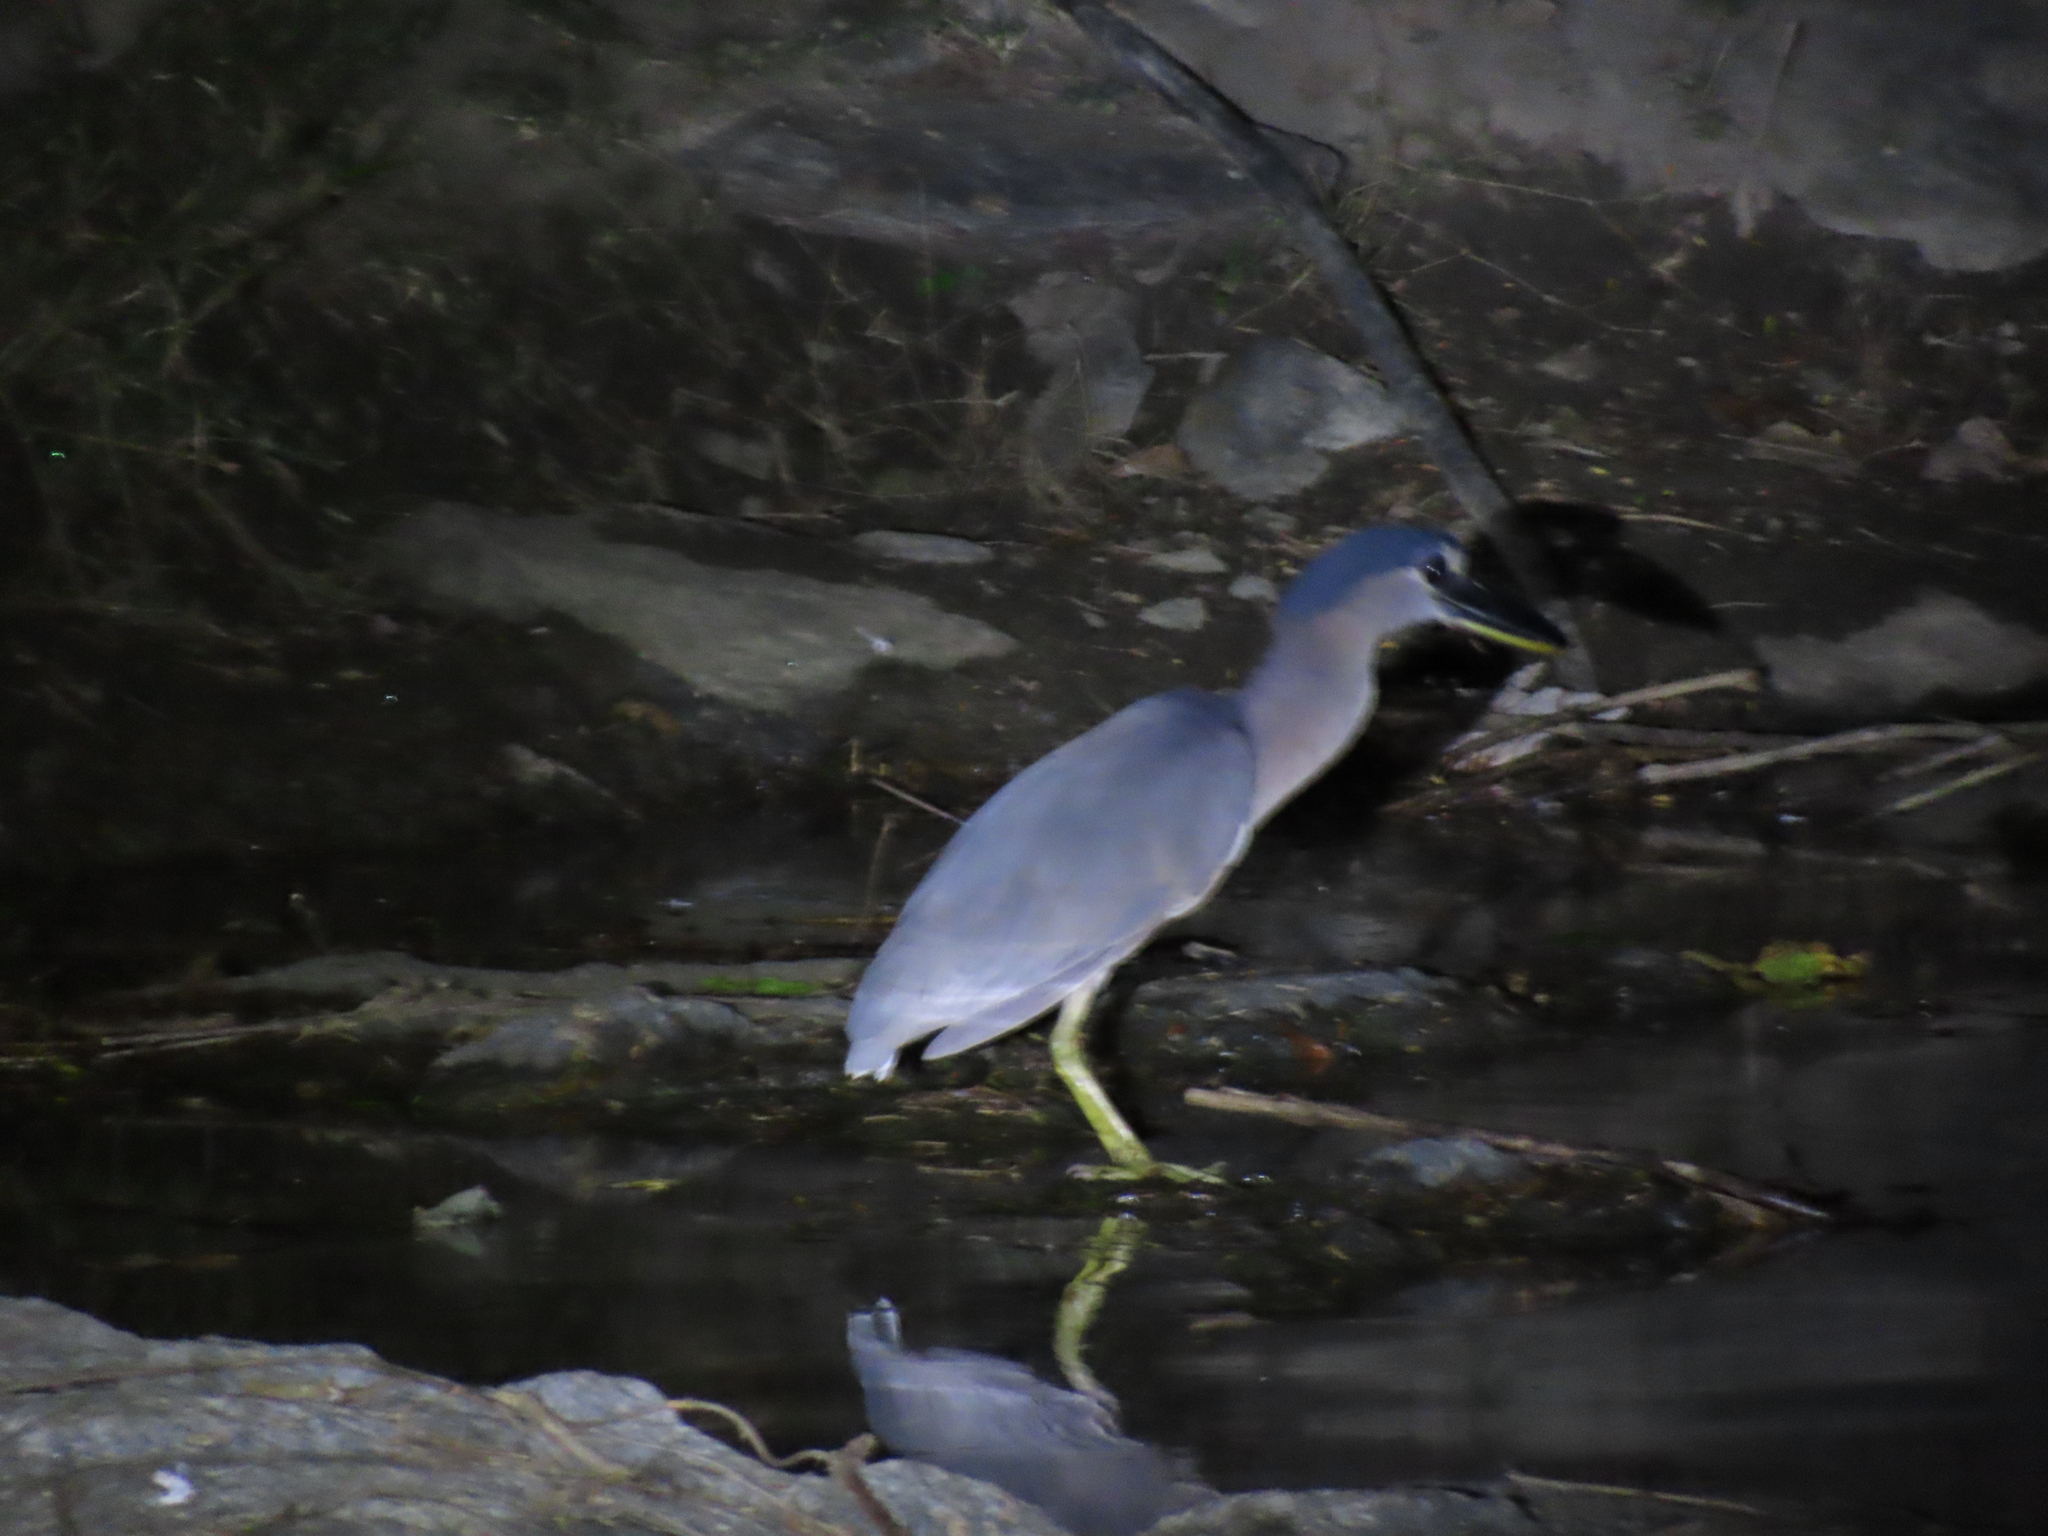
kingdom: Animalia
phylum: Chordata
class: Aves
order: Pelecaniformes
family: Ardeidae
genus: Cochlearius
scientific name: Cochlearius cochlearius
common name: Boat-billed heron
